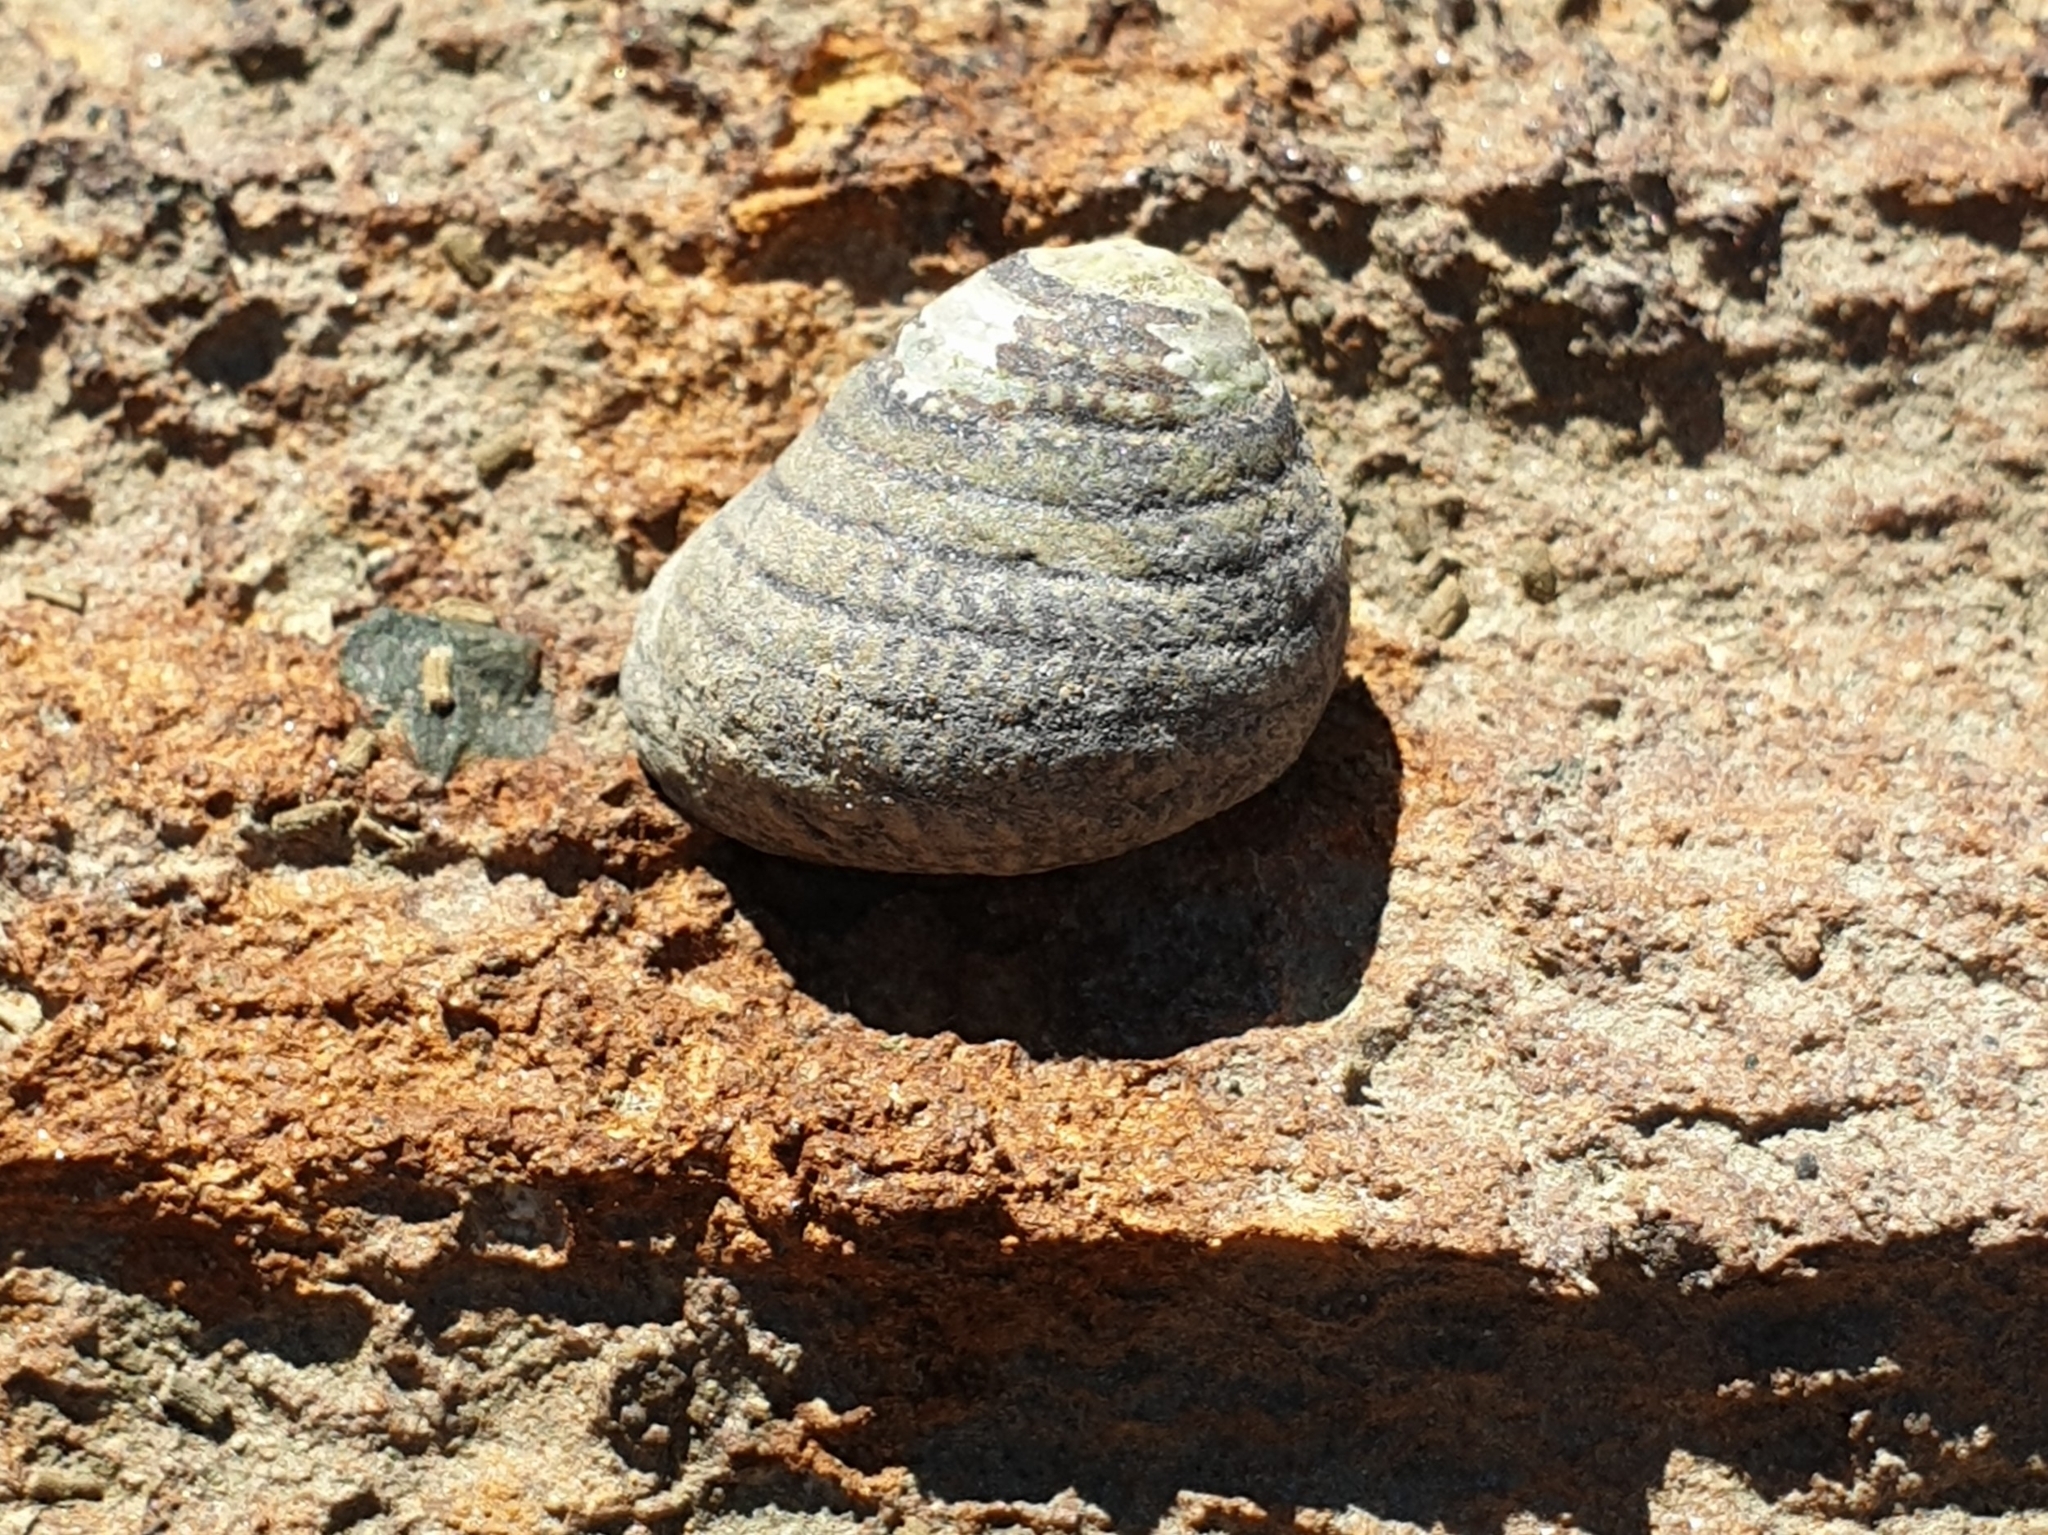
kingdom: Animalia
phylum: Mollusca
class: Gastropoda
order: Trochida
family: Trochidae
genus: Diloma
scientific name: Diloma aethiops
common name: Scorched monodont
